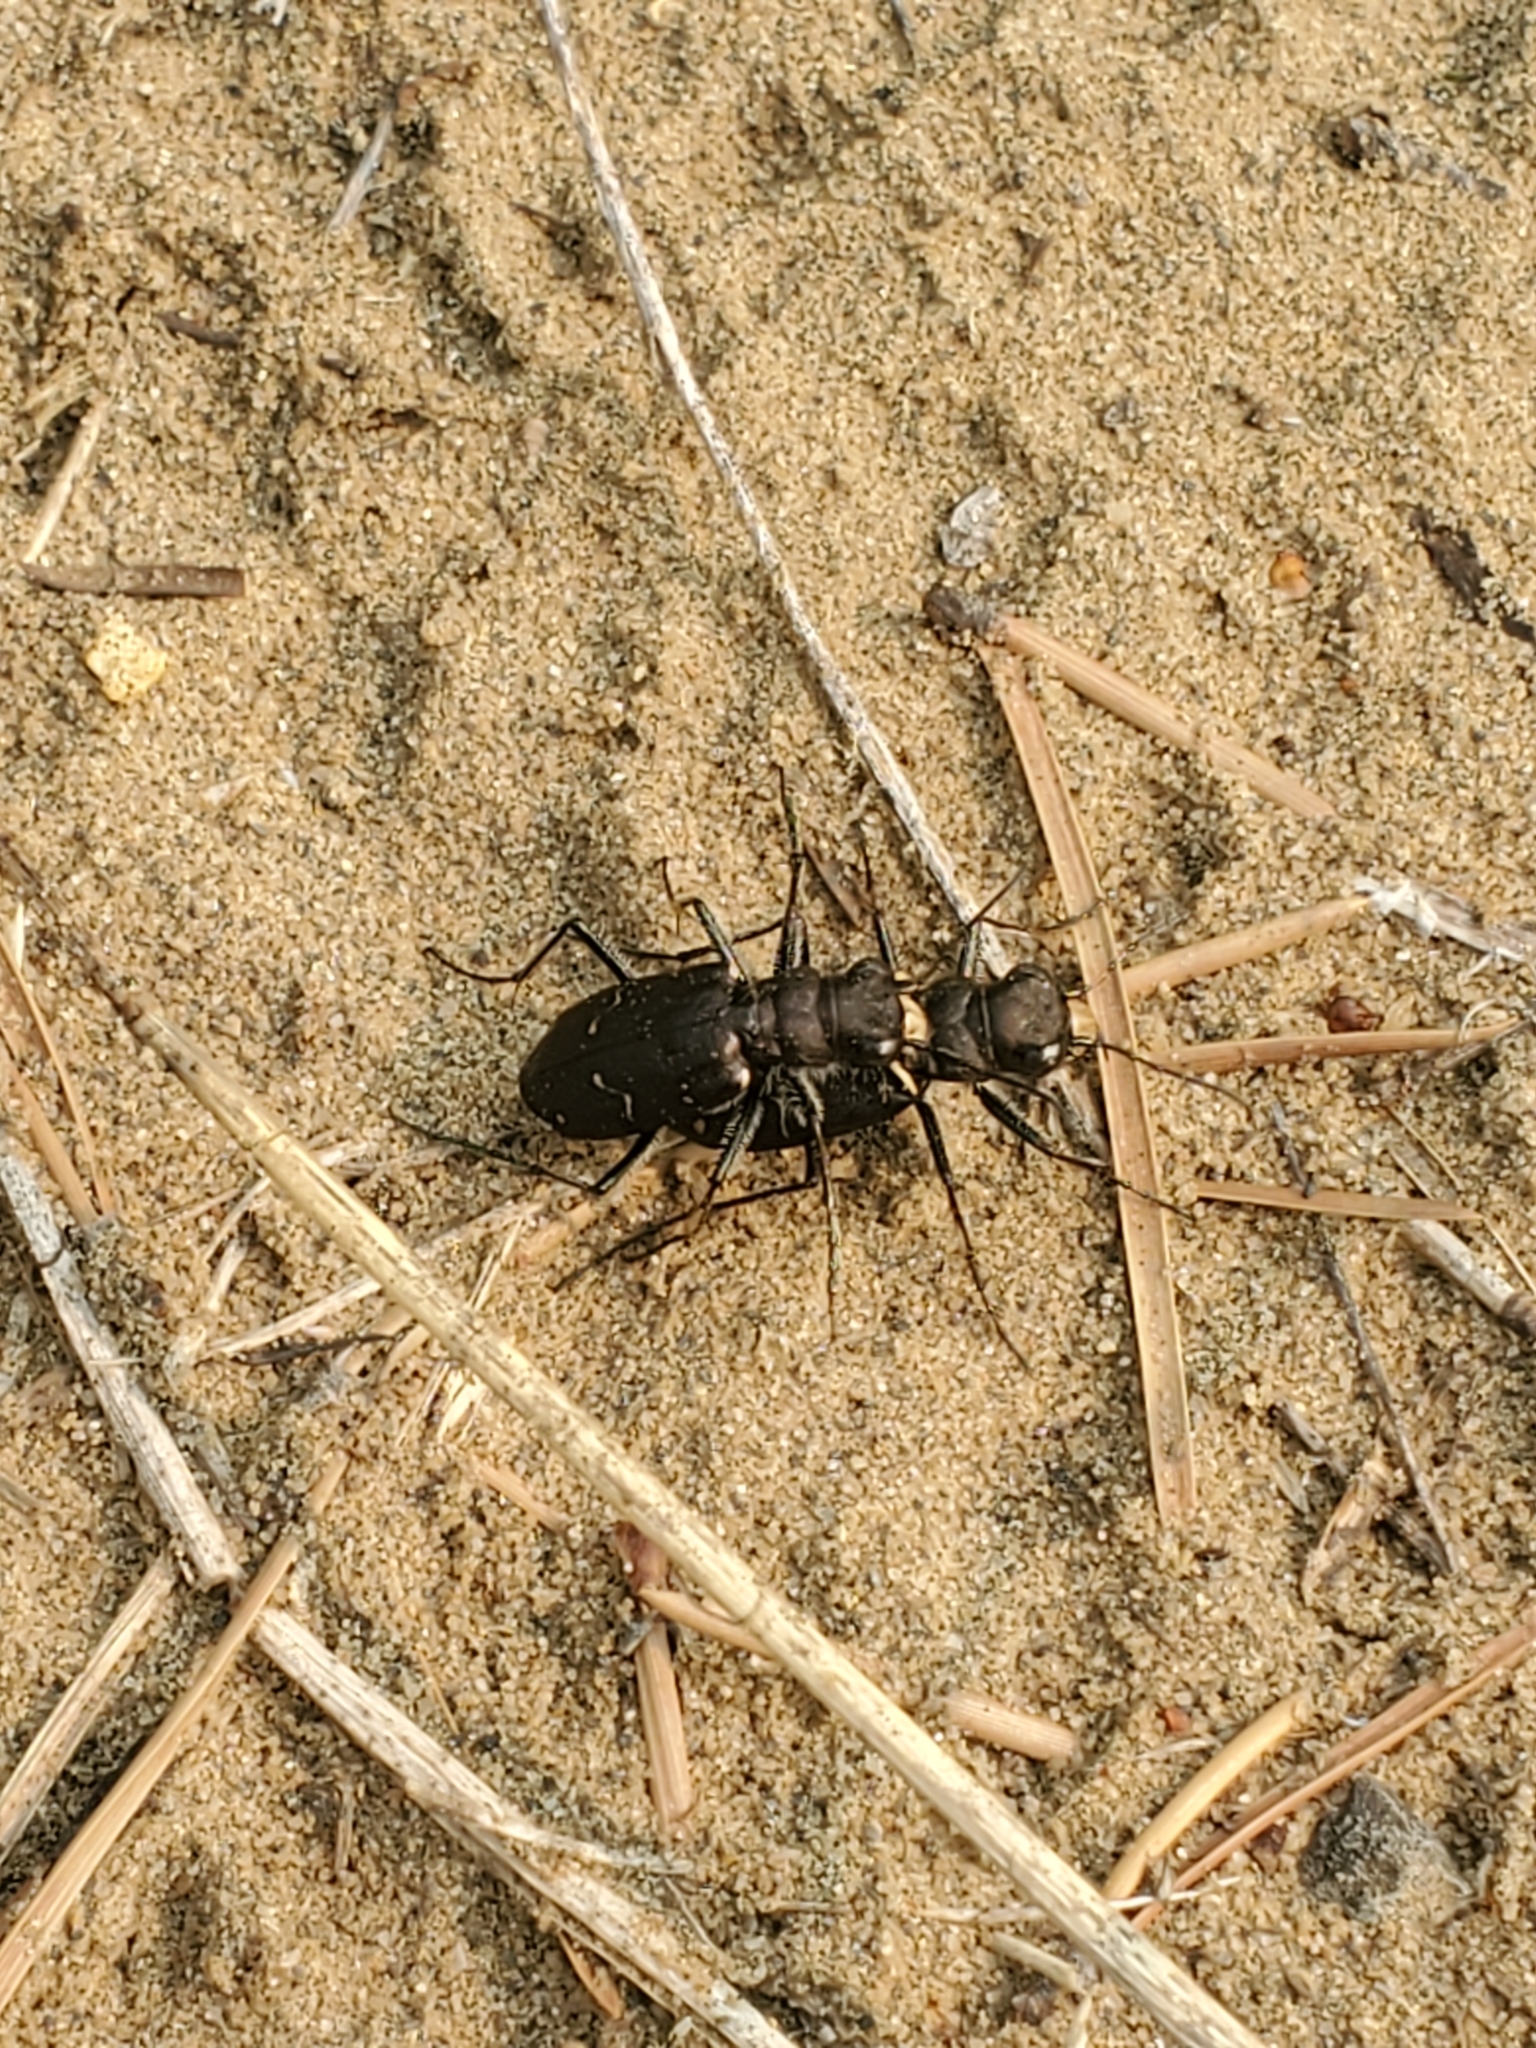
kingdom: Animalia
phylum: Arthropoda
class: Insecta
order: Coleoptera
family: Carabidae
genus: Cicindela
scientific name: Cicindela longilabris
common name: Boreal long-lipped tiger beetle
